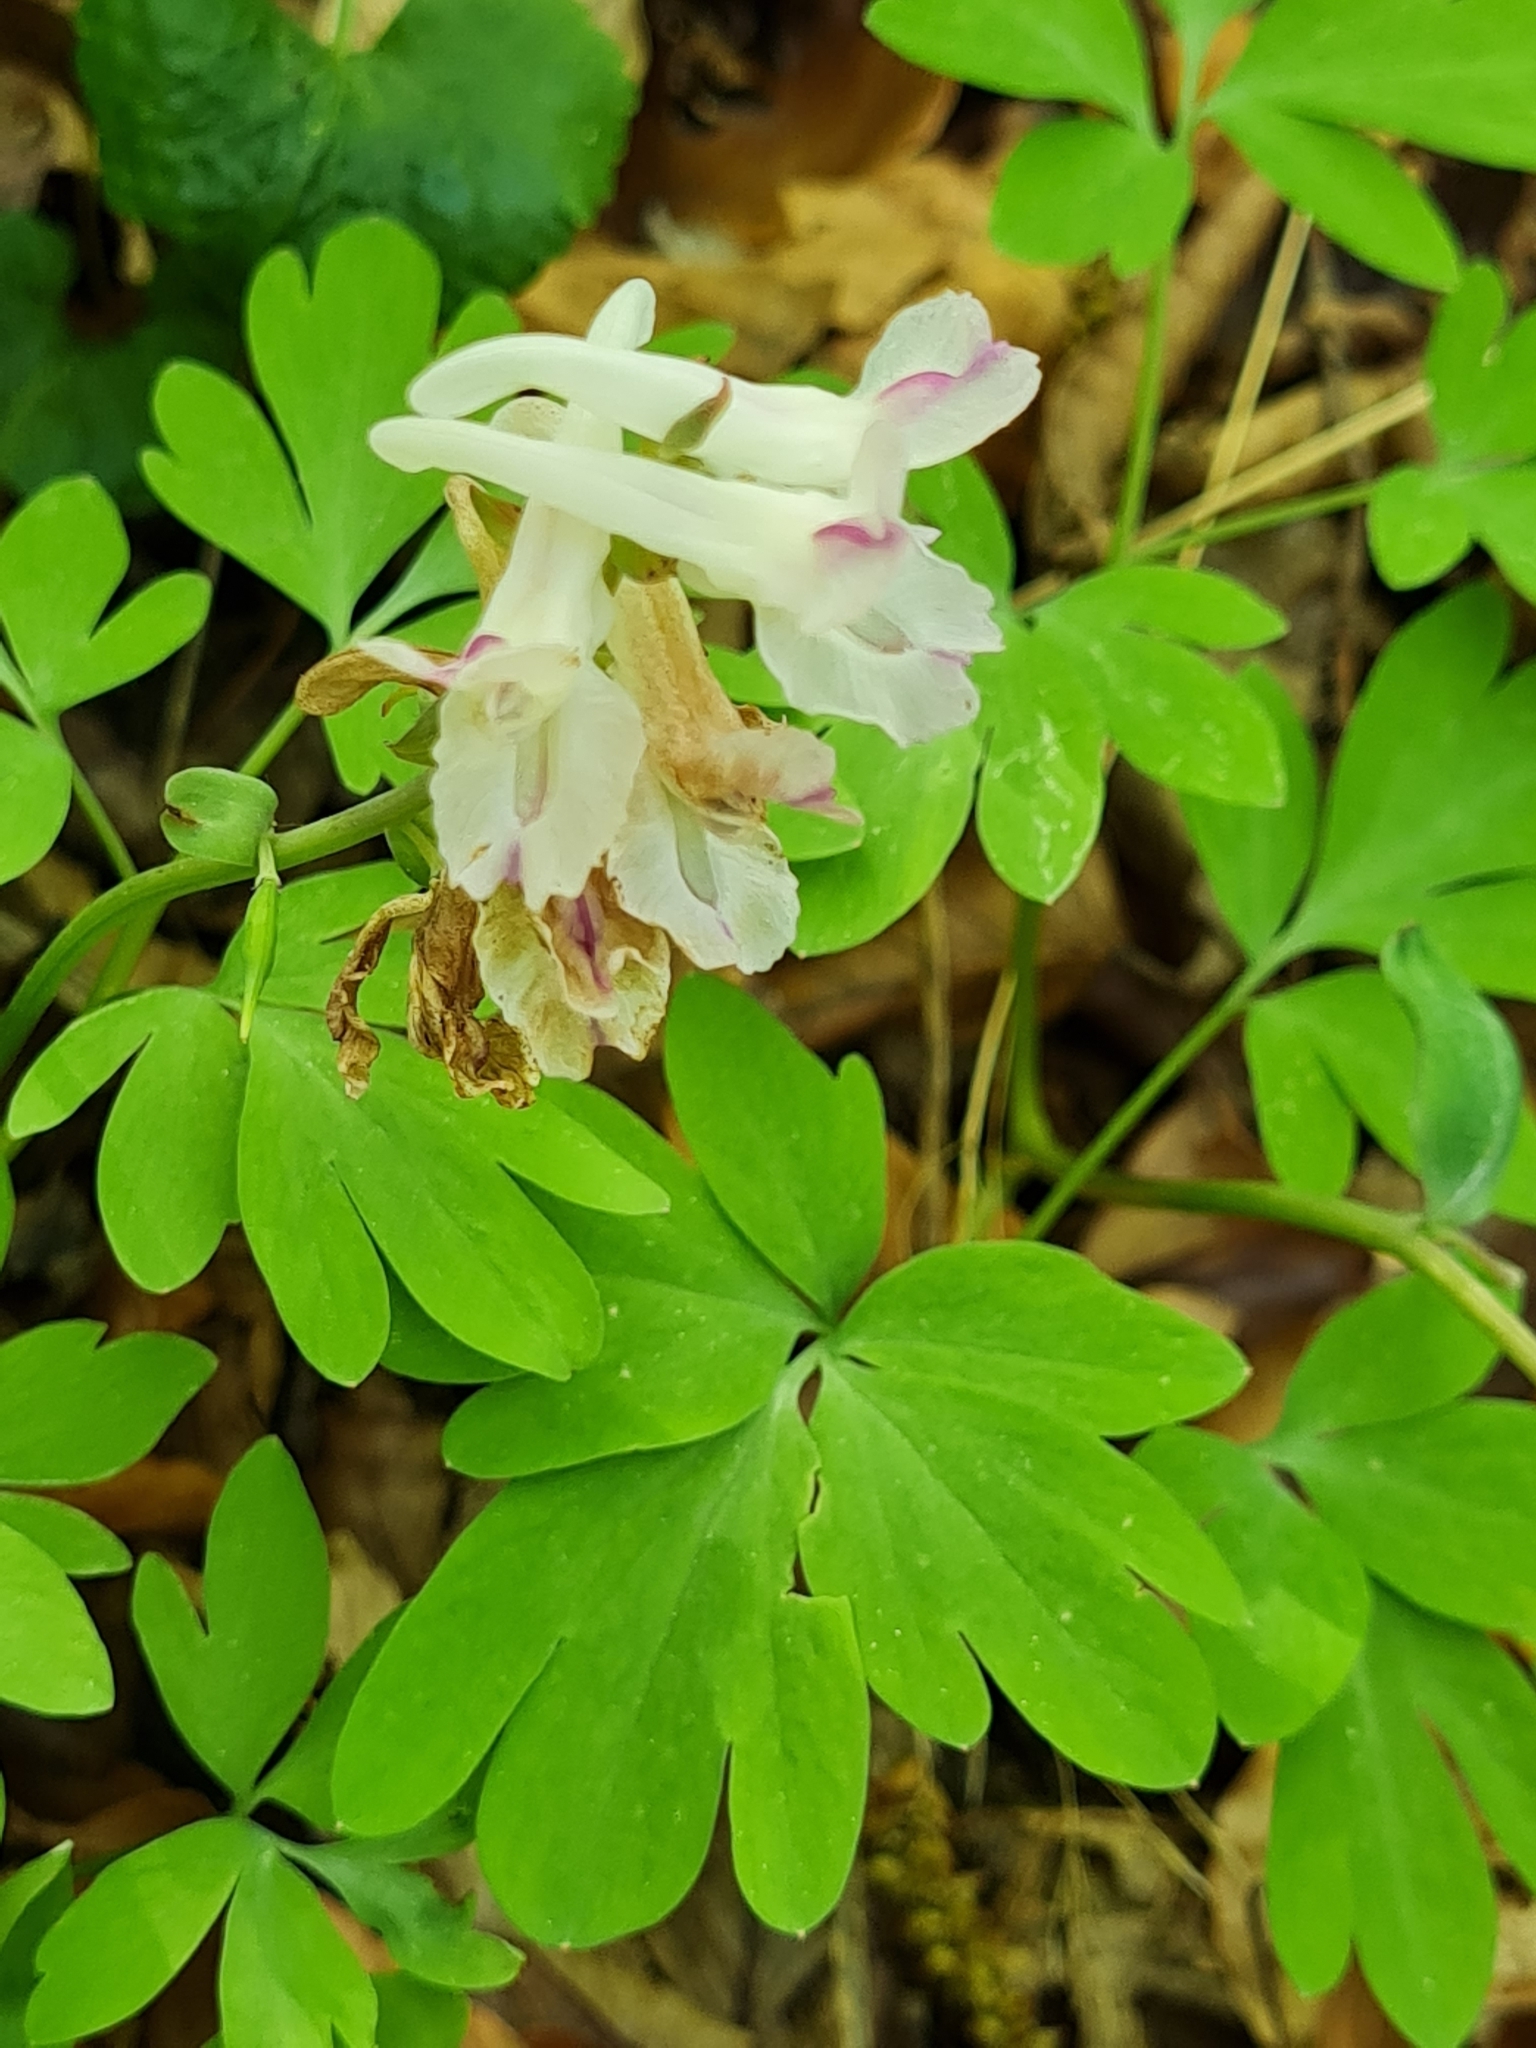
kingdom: Plantae
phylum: Tracheophyta
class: Magnoliopsida
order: Ranunculales
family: Papaveraceae
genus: Corydalis
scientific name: Corydalis cava
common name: Hollowroot
